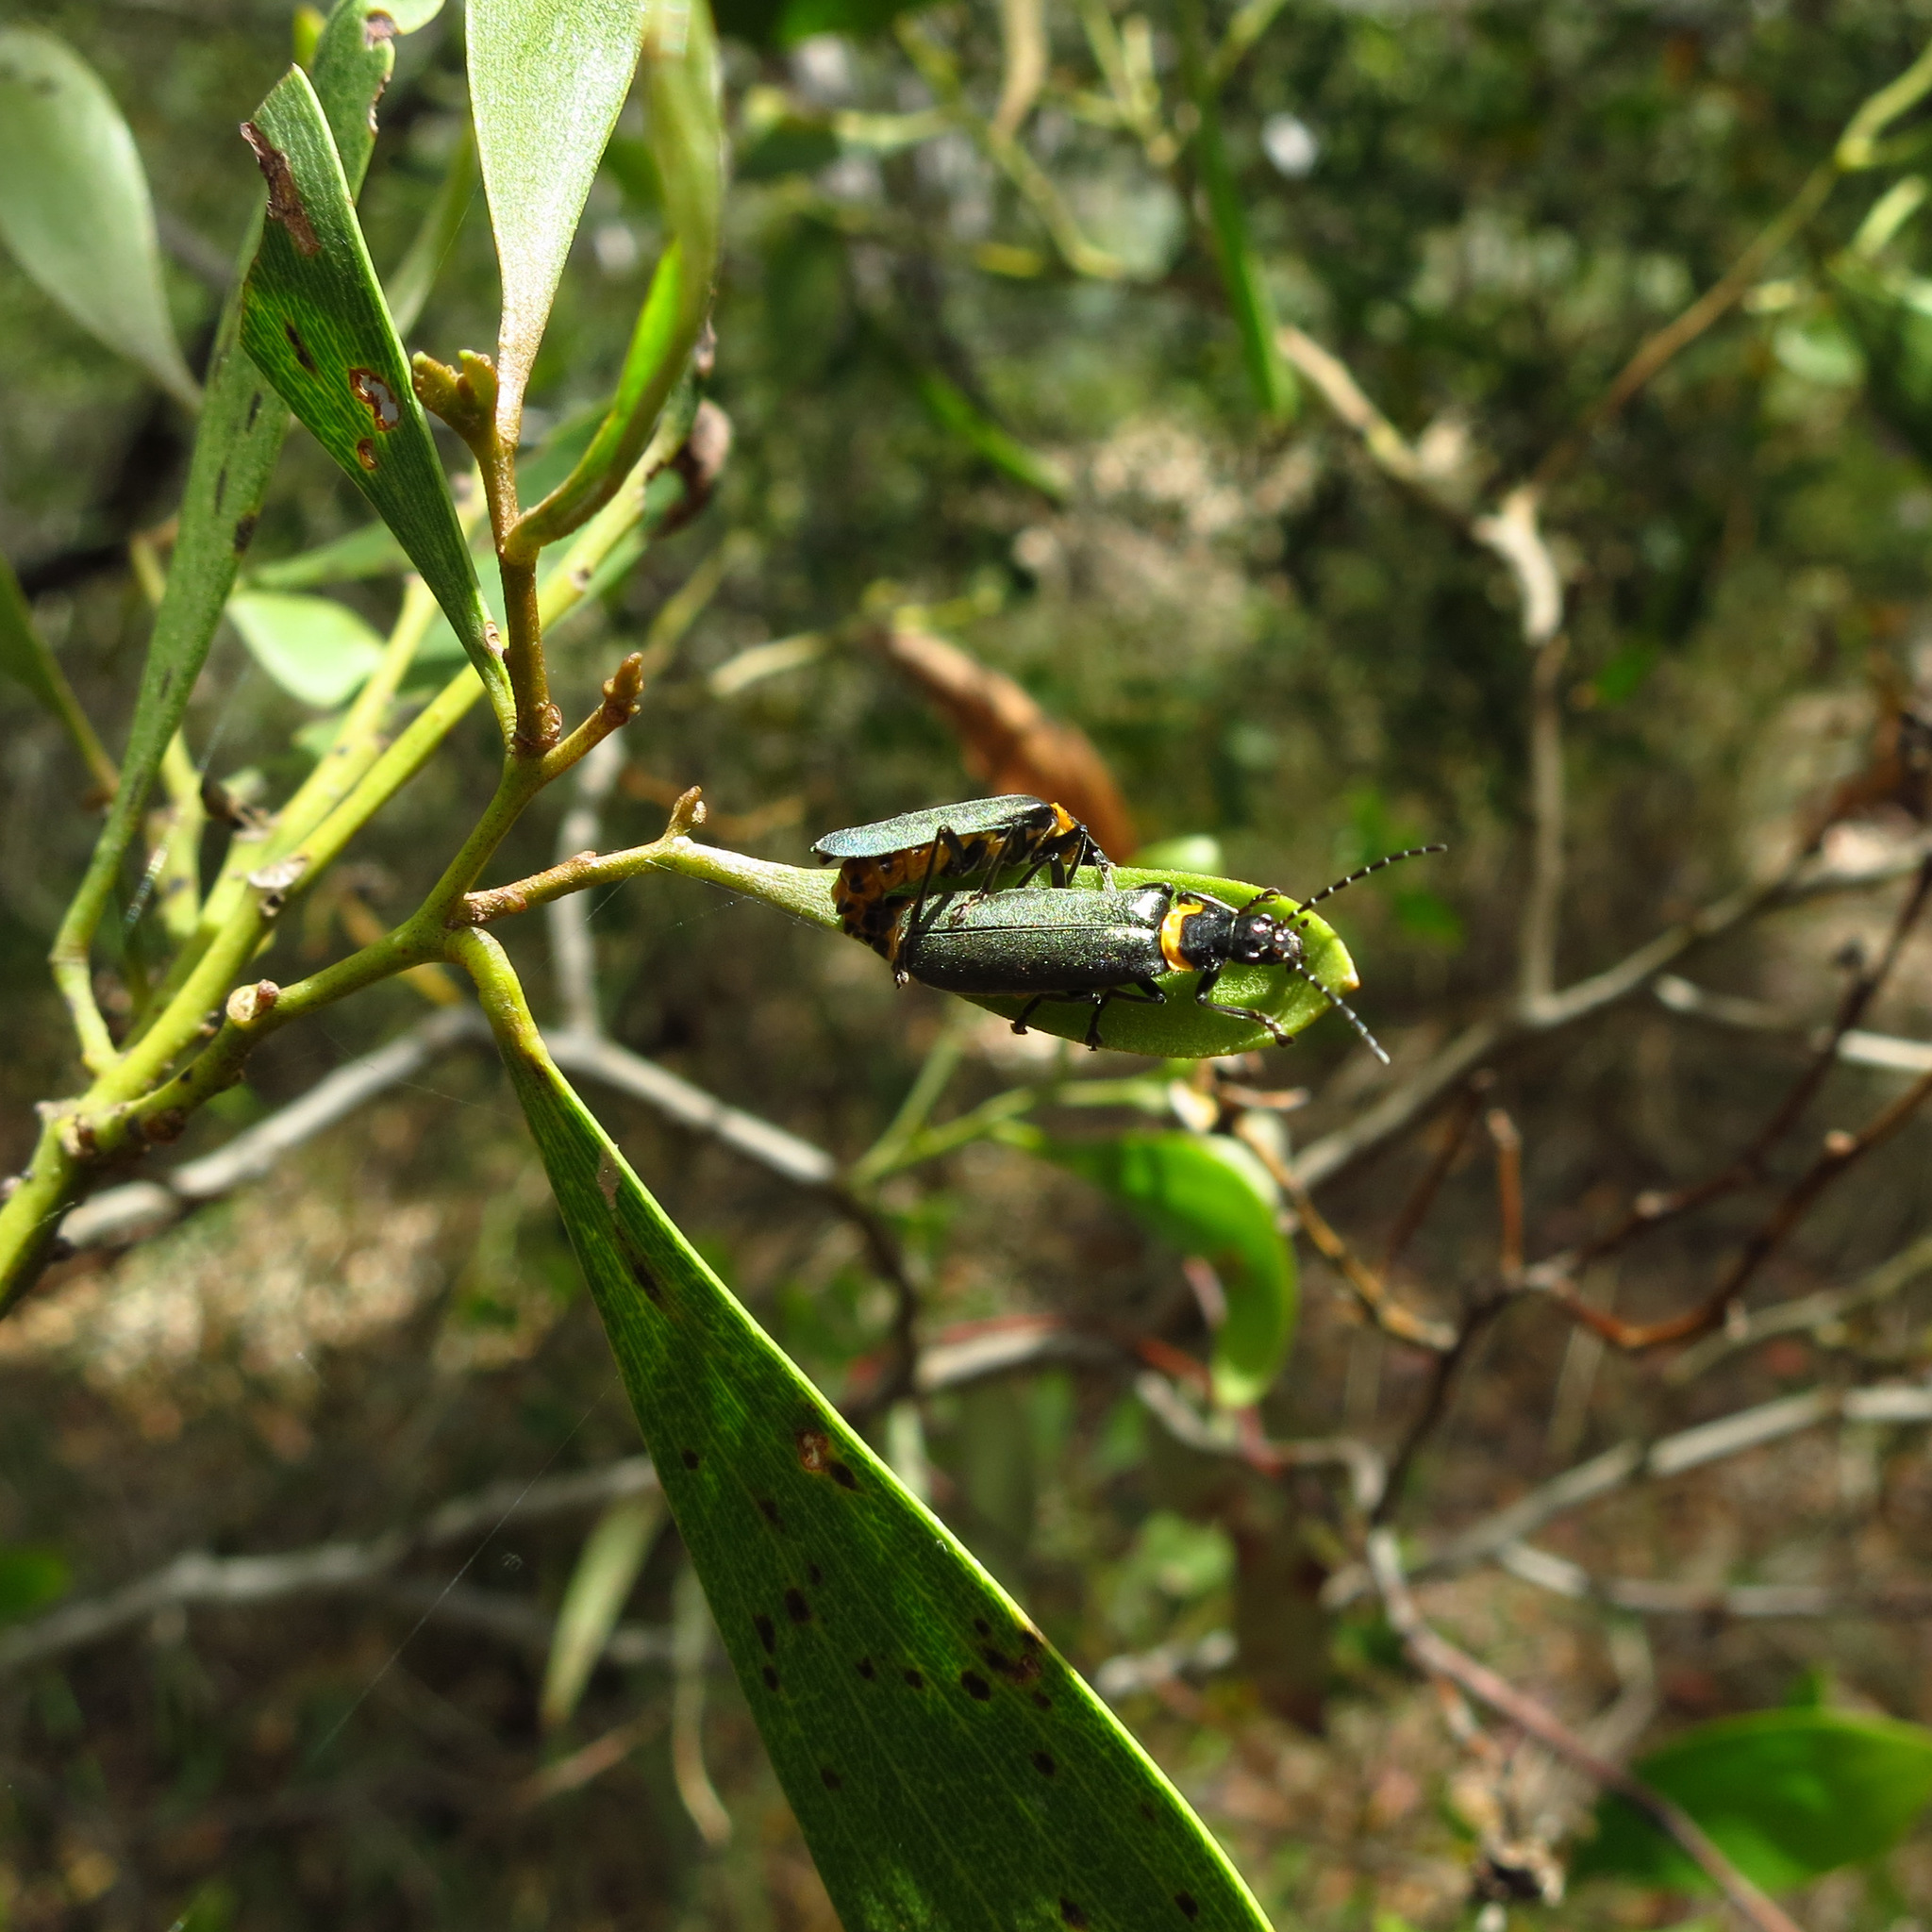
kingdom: Animalia
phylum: Arthropoda
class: Insecta
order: Coleoptera
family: Cantharidae
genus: Chauliognathus
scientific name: Chauliognathus
